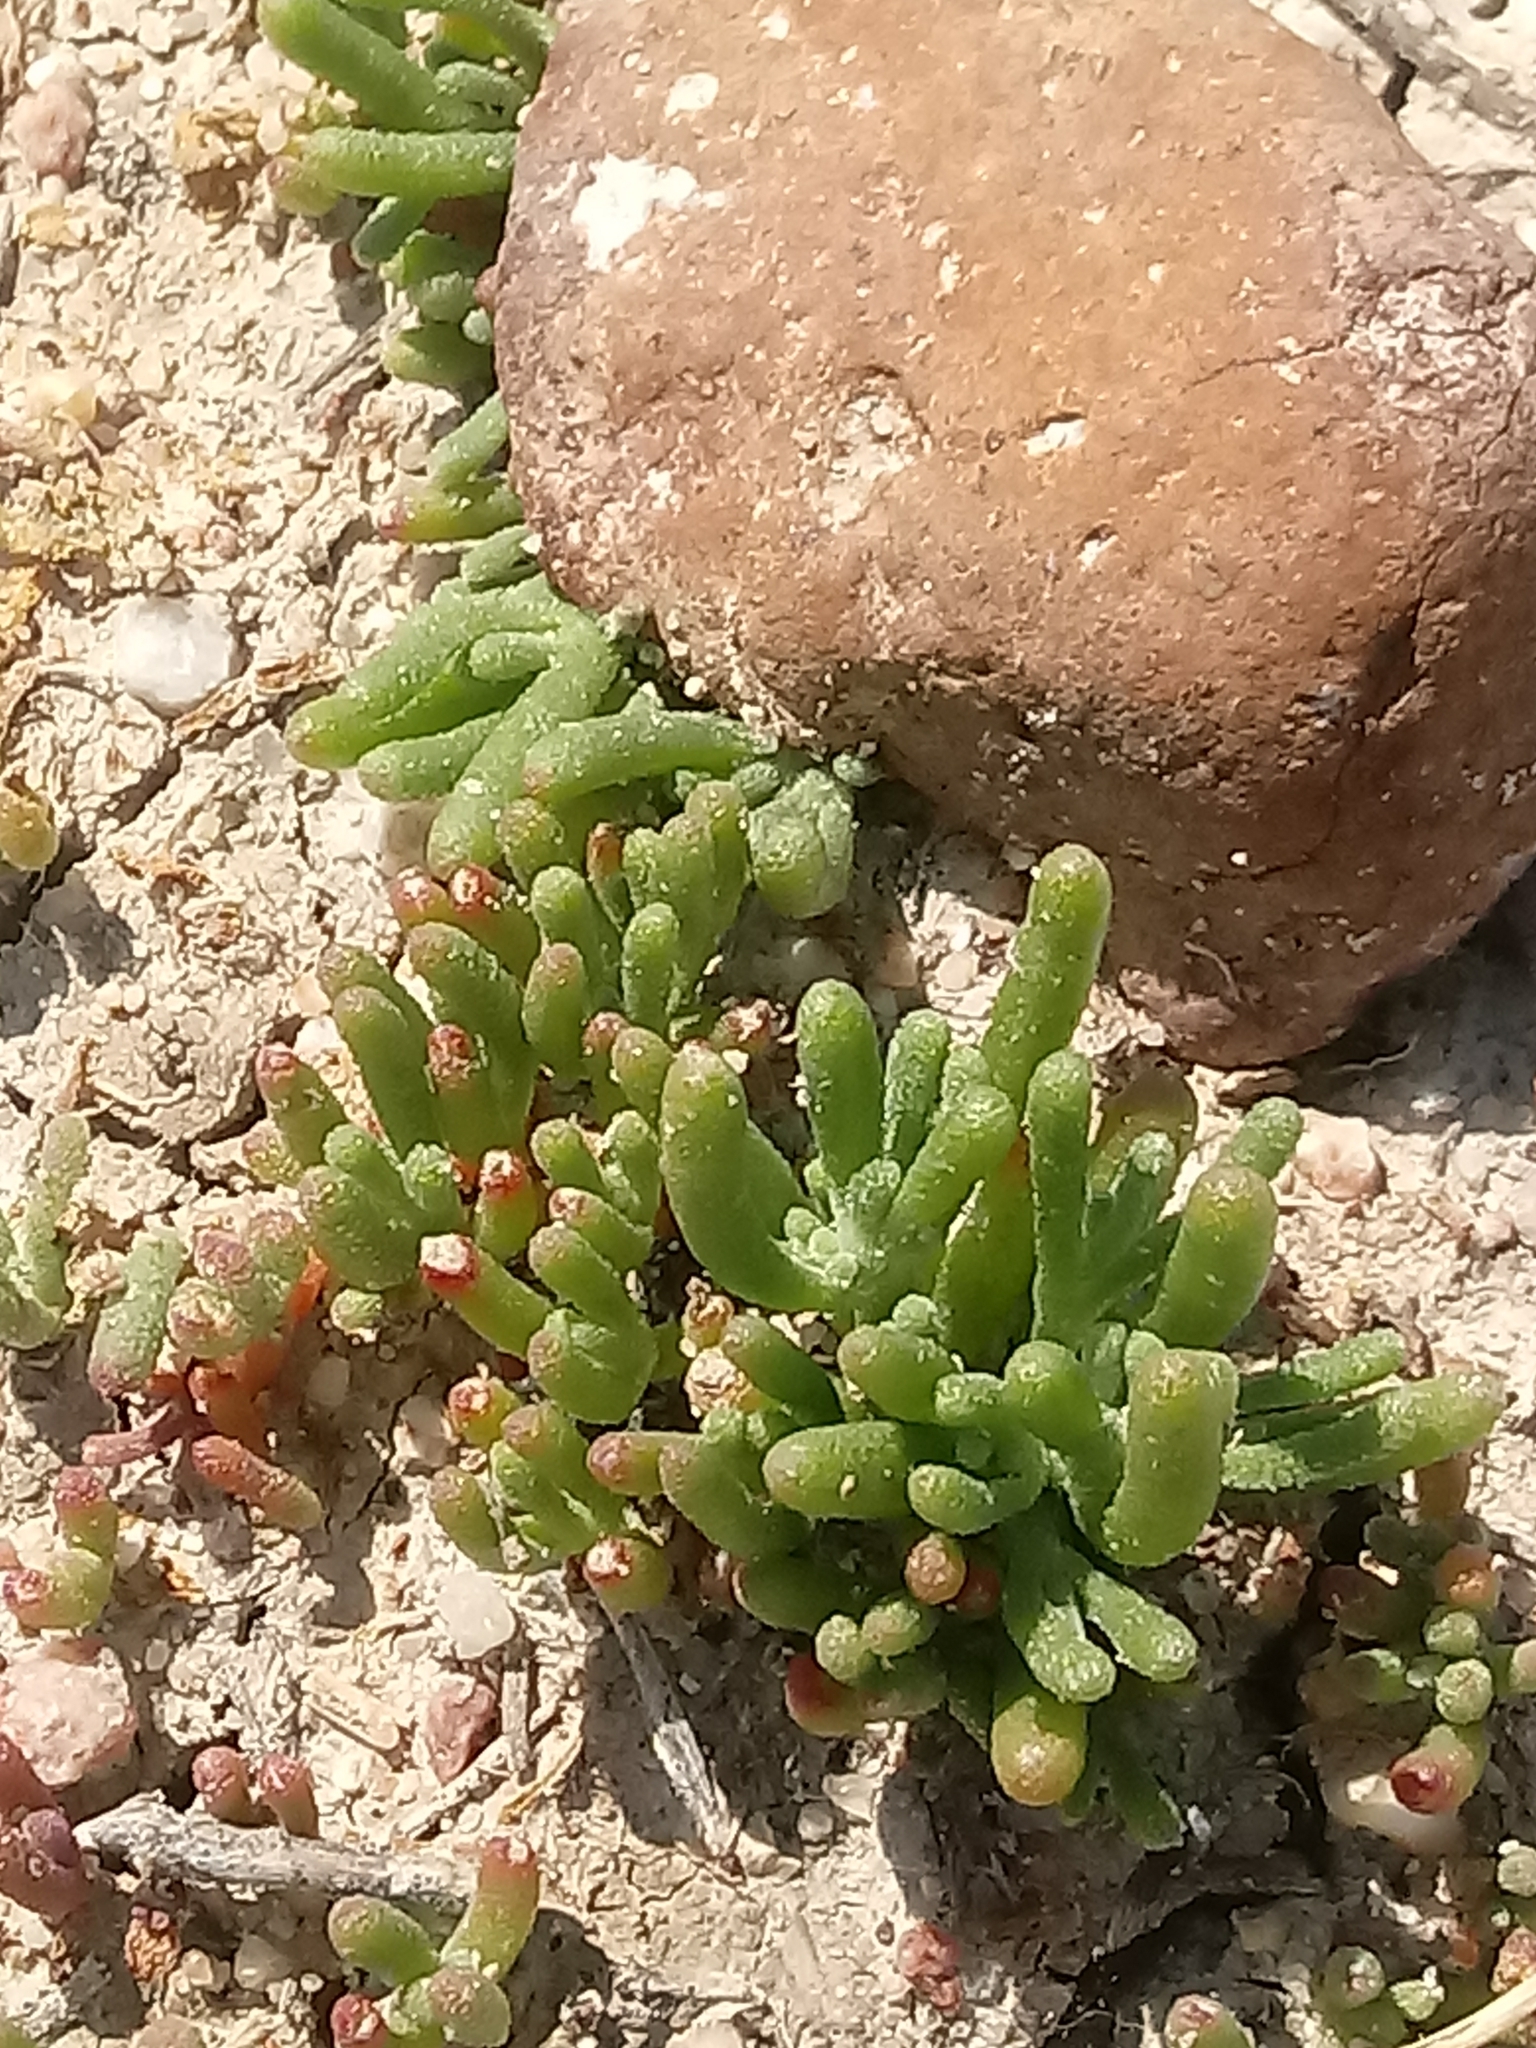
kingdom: Plantae
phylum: Tracheophyta
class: Magnoliopsida
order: Caryophyllales
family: Aizoaceae
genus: Mesembryanthemum
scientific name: Mesembryanthemum nodiflorum
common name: Slenderleaf iceplant
